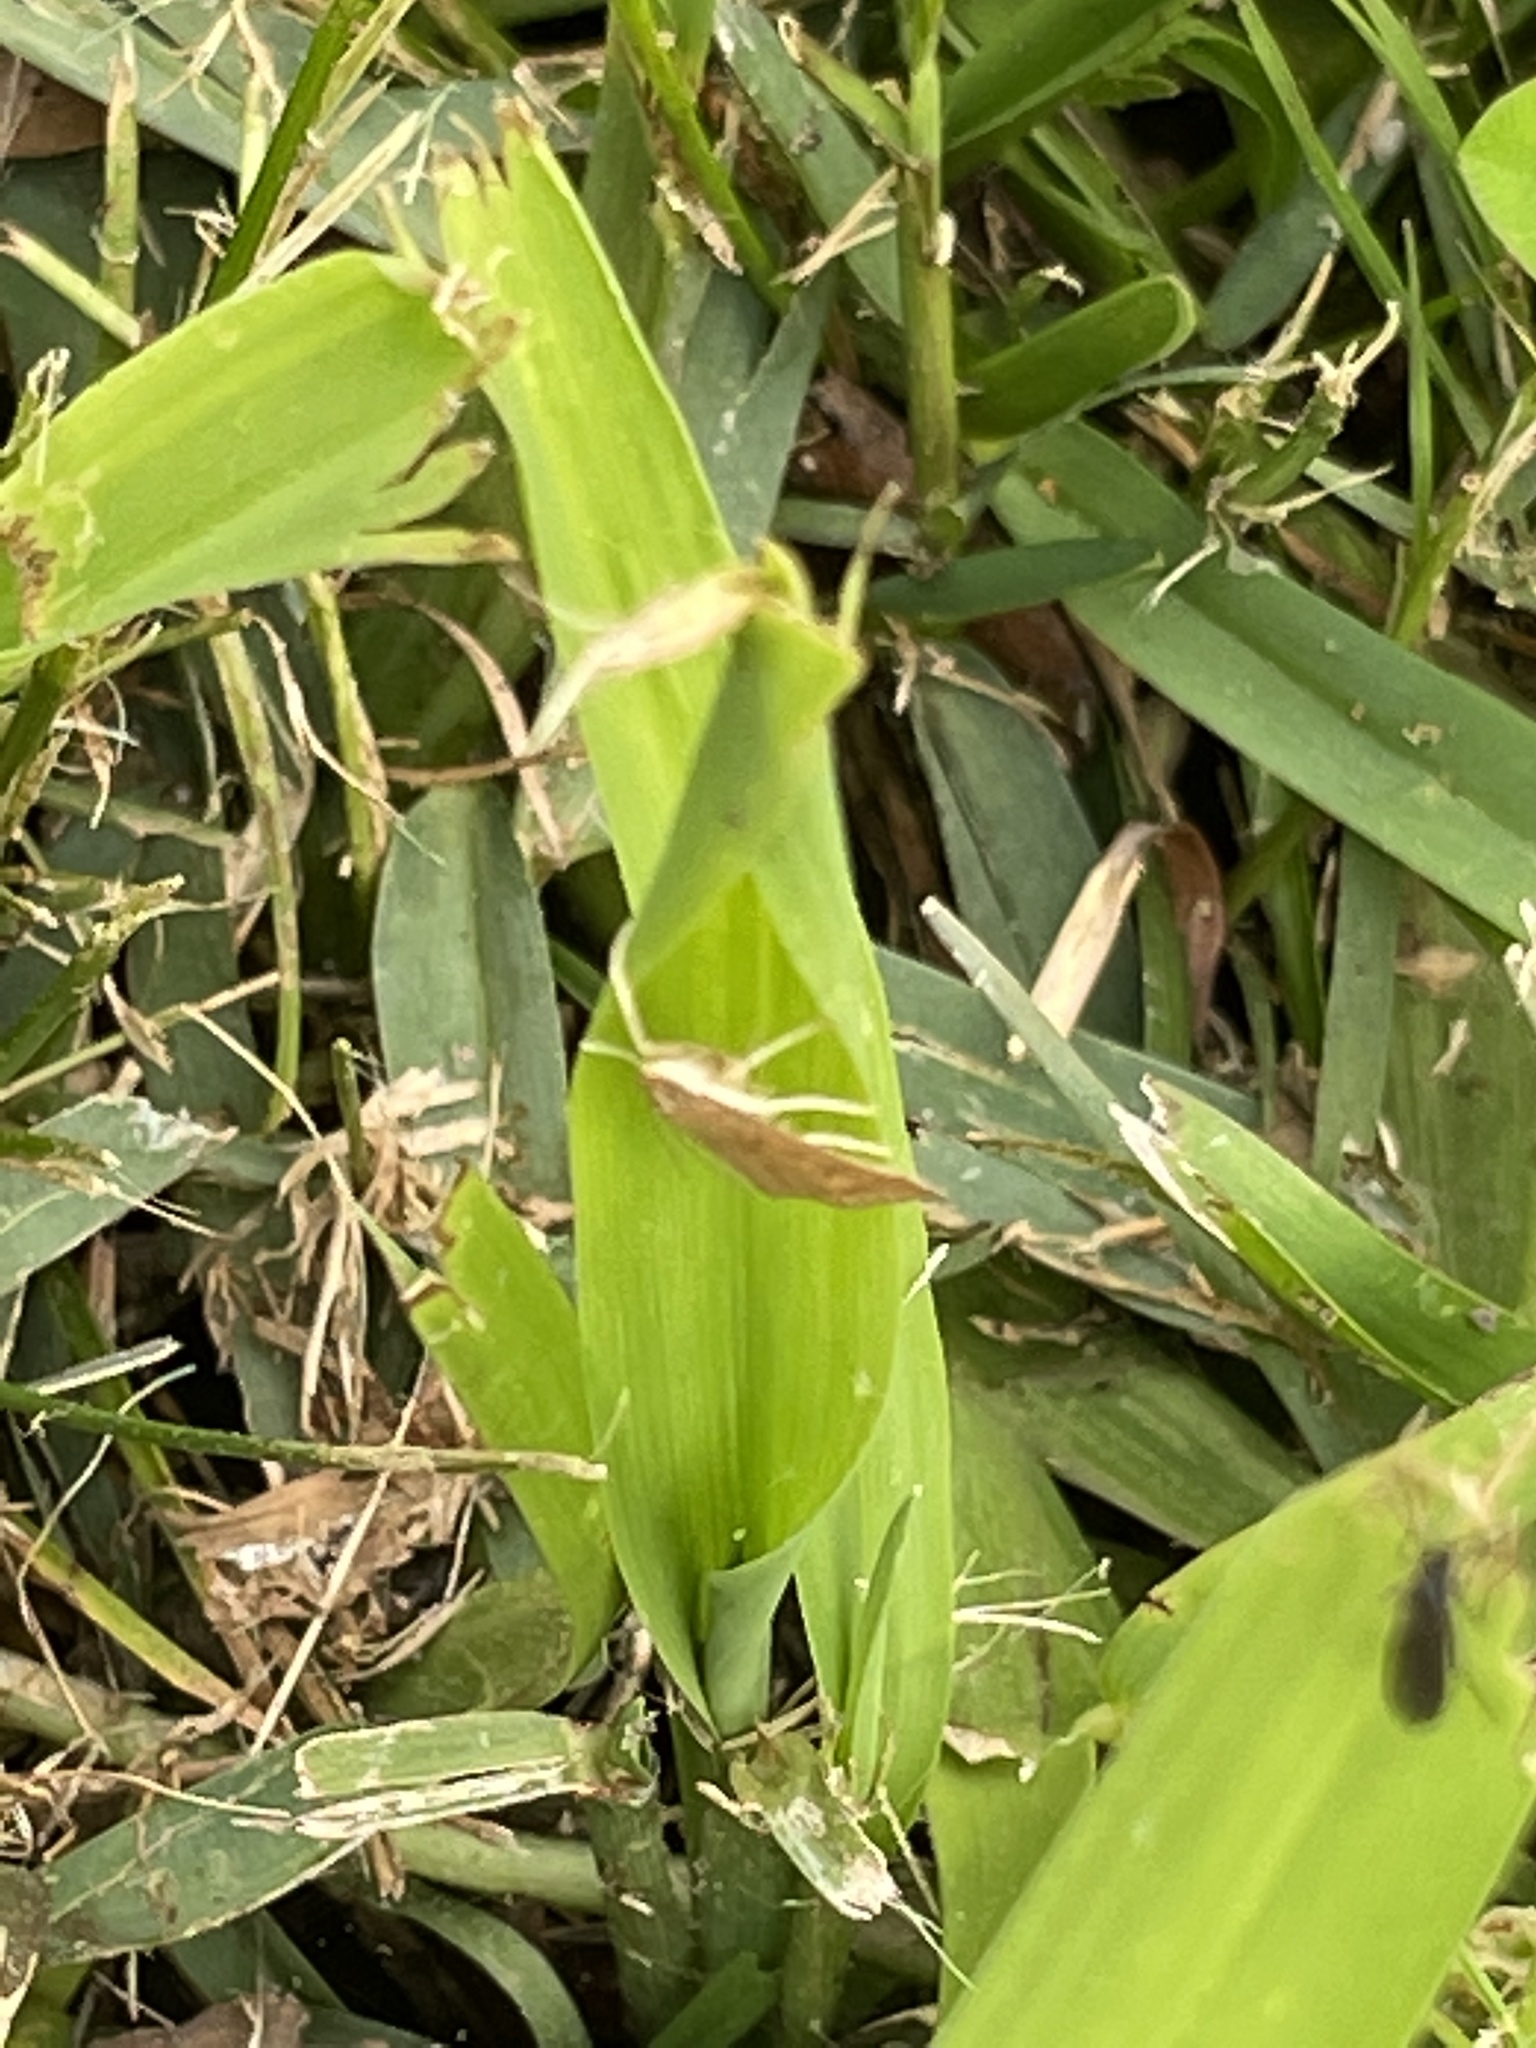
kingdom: Animalia
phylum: Arthropoda
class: Insecta
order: Lepidoptera
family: Crambidae
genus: Udea
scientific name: Udea rubigalis
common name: Celery leaftier moth
